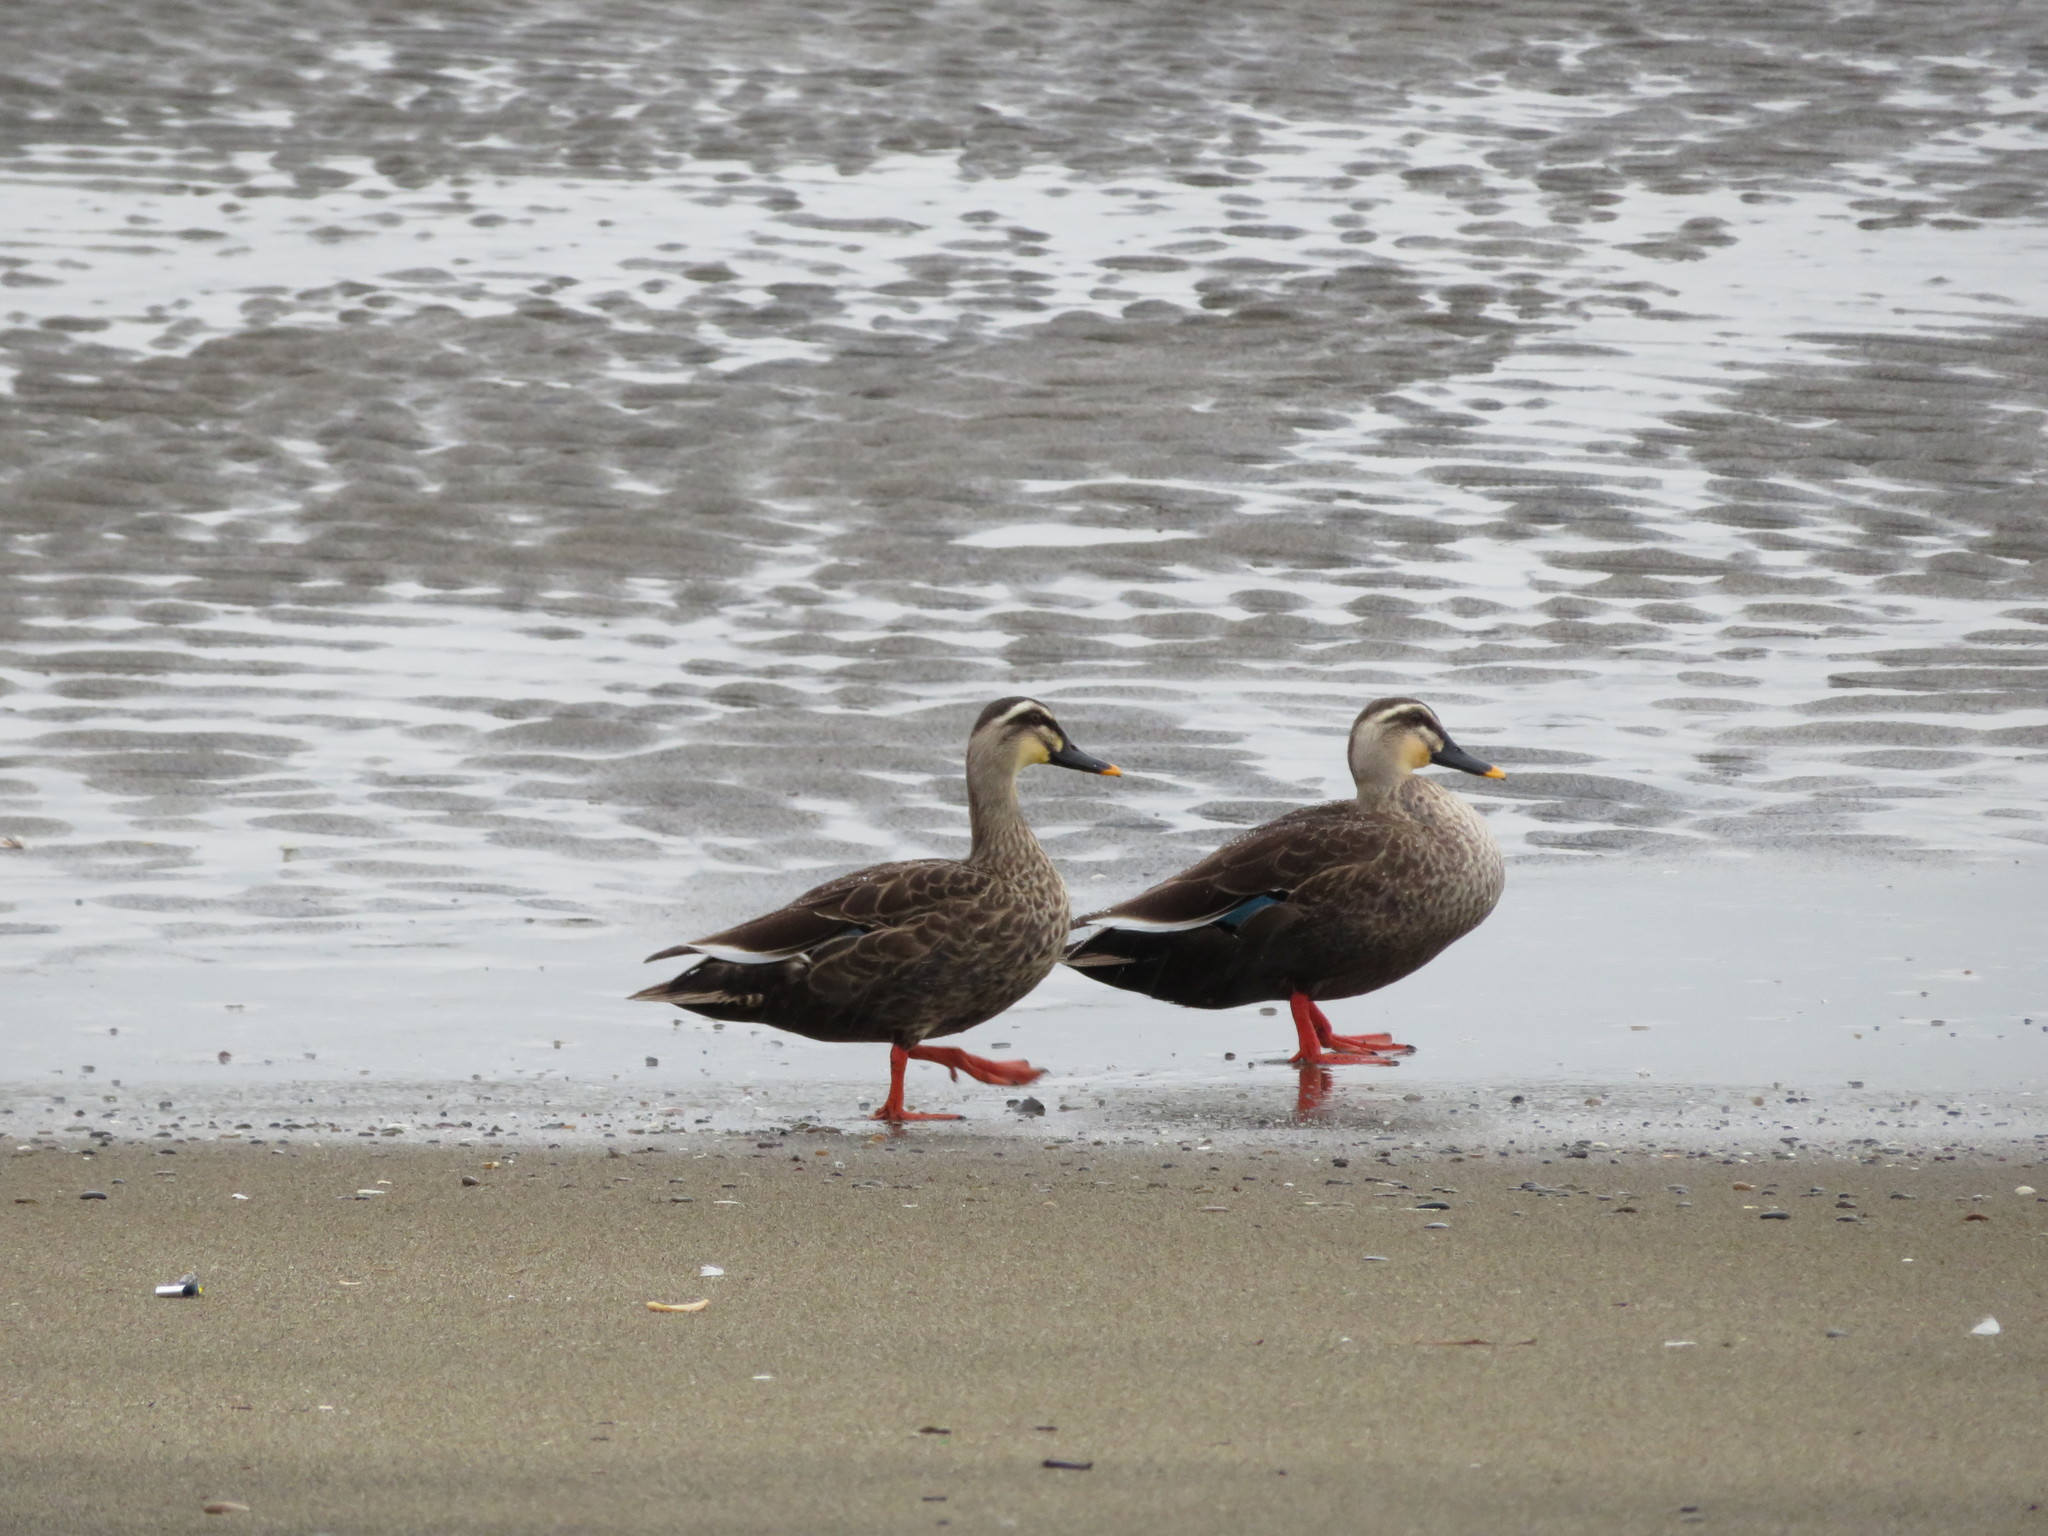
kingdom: Animalia
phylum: Chordata
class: Aves
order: Anseriformes
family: Anatidae
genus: Anas
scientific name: Anas zonorhyncha
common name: Eastern spot-billed duck
